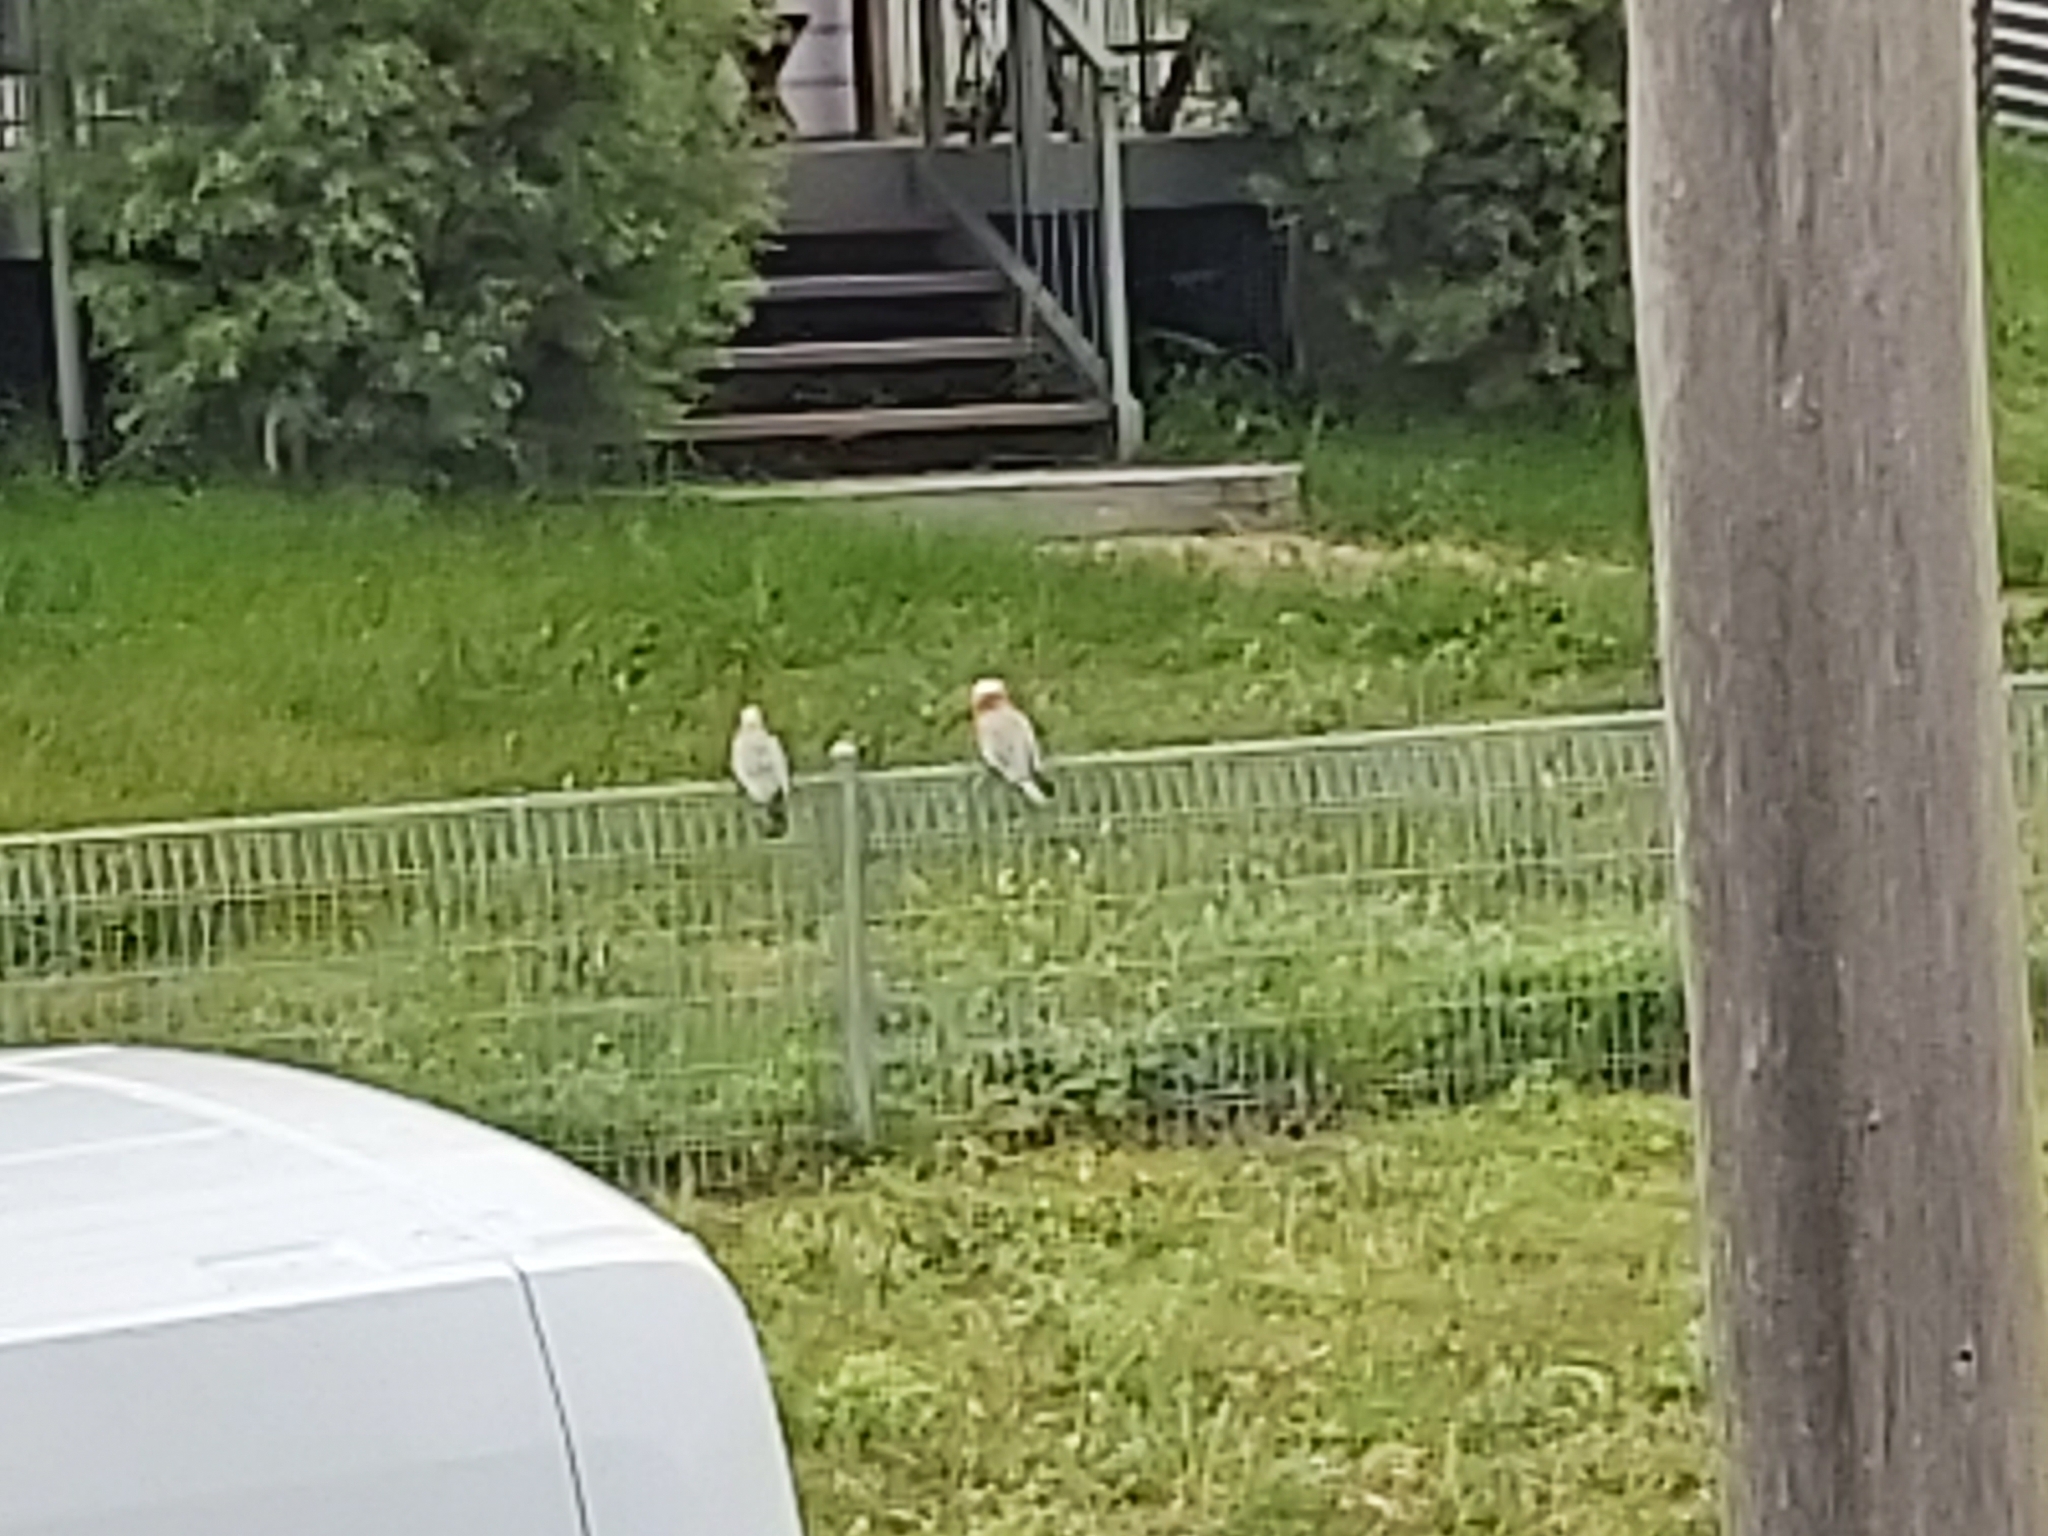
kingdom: Animalia
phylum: Chordata
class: Aves
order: Psittaciformes
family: Psittacidae
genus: Eolophus
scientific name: Eolophus roseicapilla
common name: Galah
